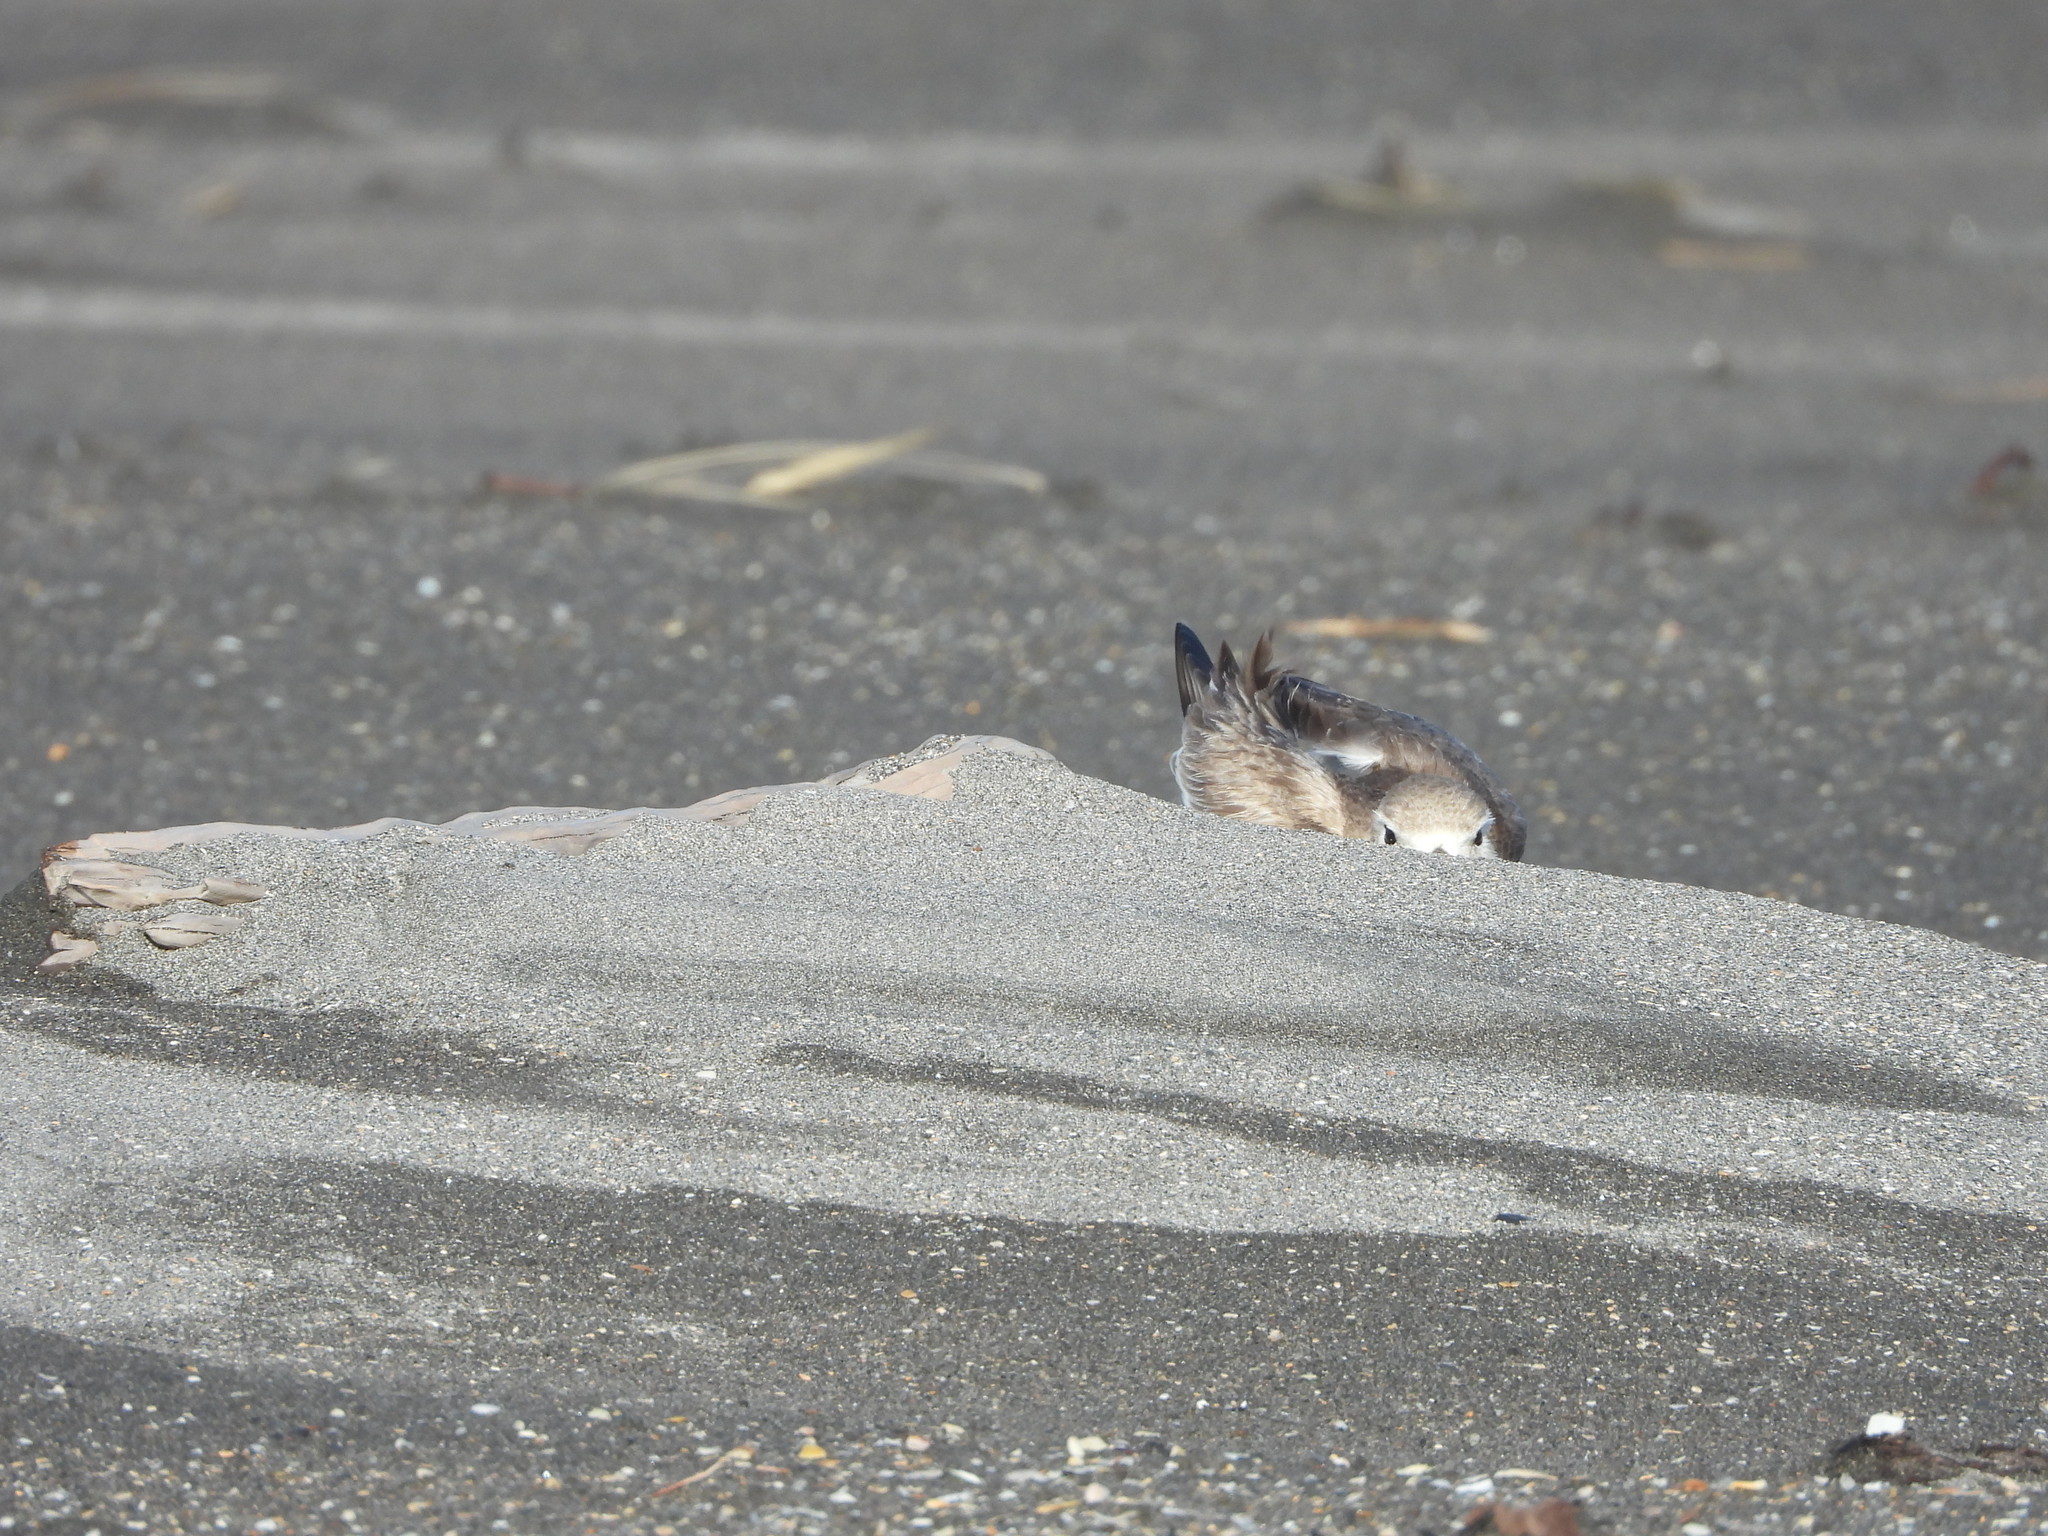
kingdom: Animalia
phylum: Chordata
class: Aves
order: Charadriiformes
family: Charadriidae
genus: Anarhynchus
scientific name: Anarhynchus
